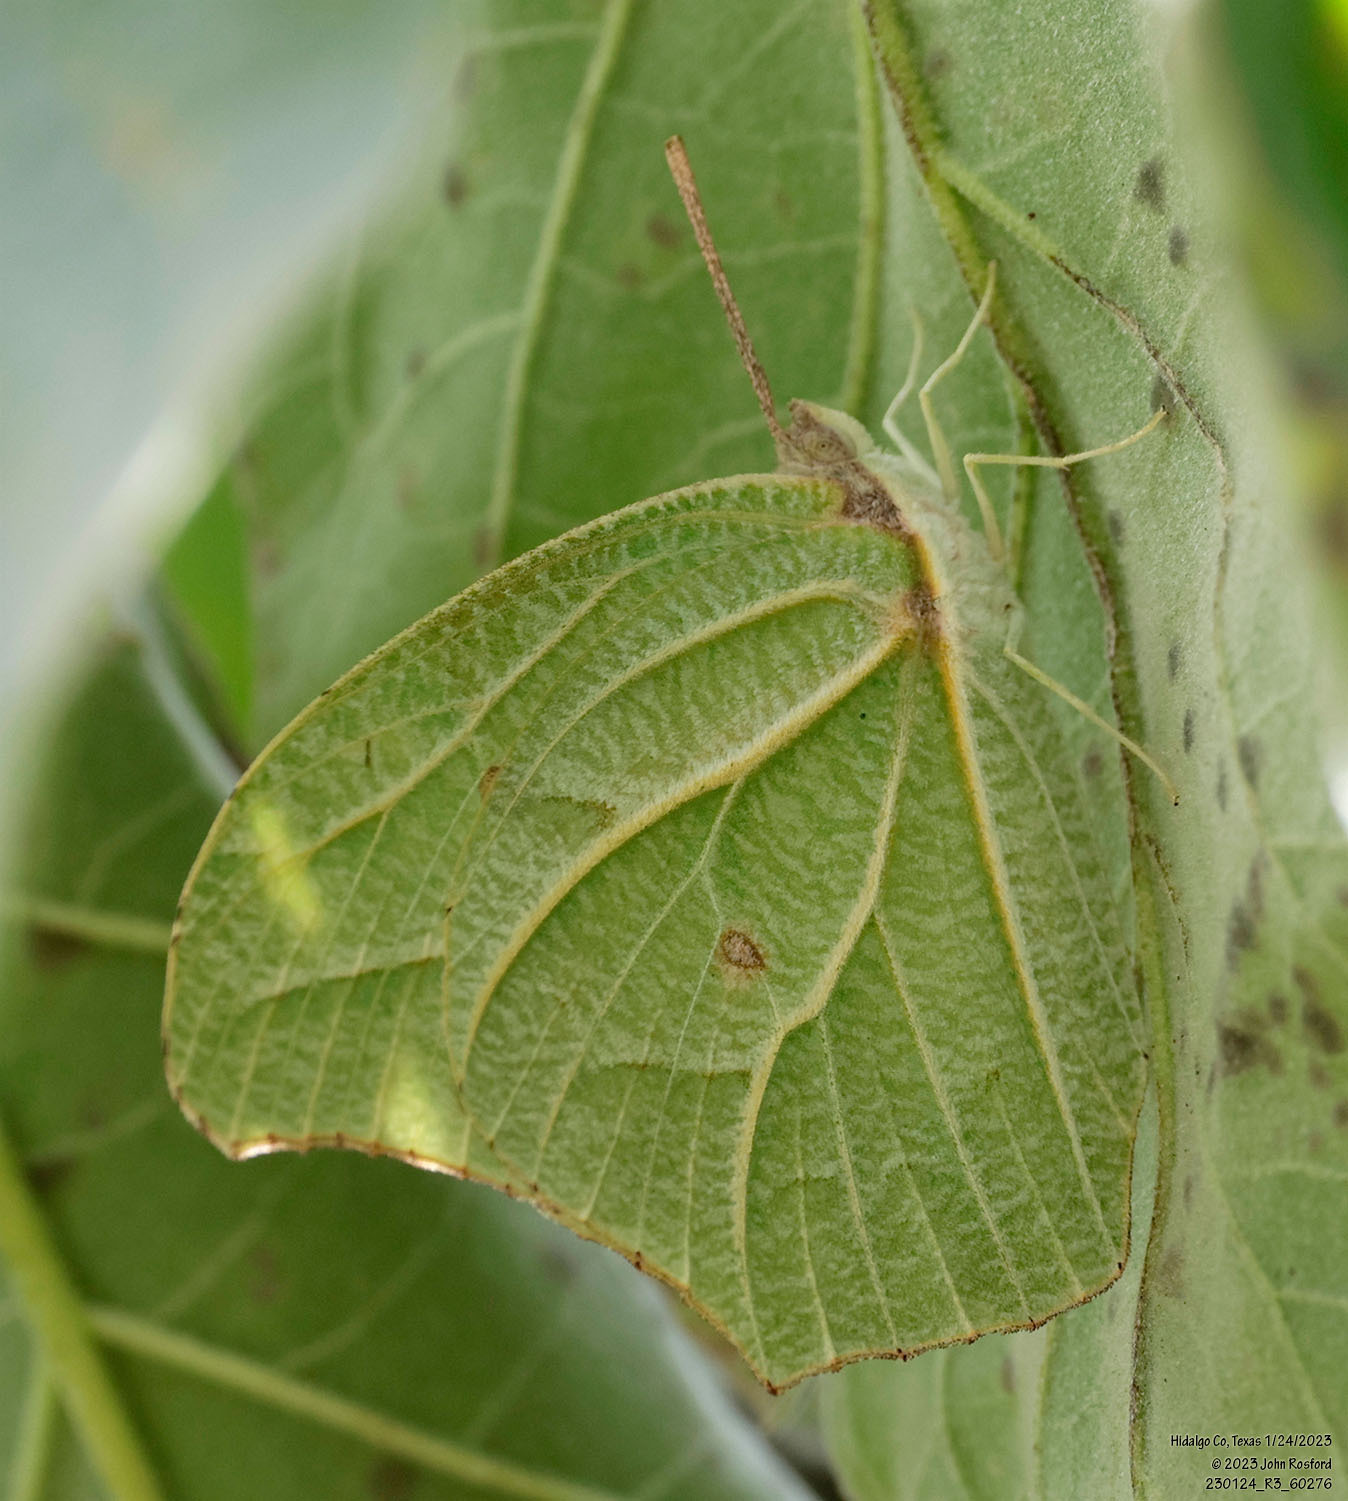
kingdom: Animalia
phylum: Arthropoda
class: Insecta
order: Lepidoptera
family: Pieridae
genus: Anteos
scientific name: Anteos clorinde
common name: White angled sulphur
